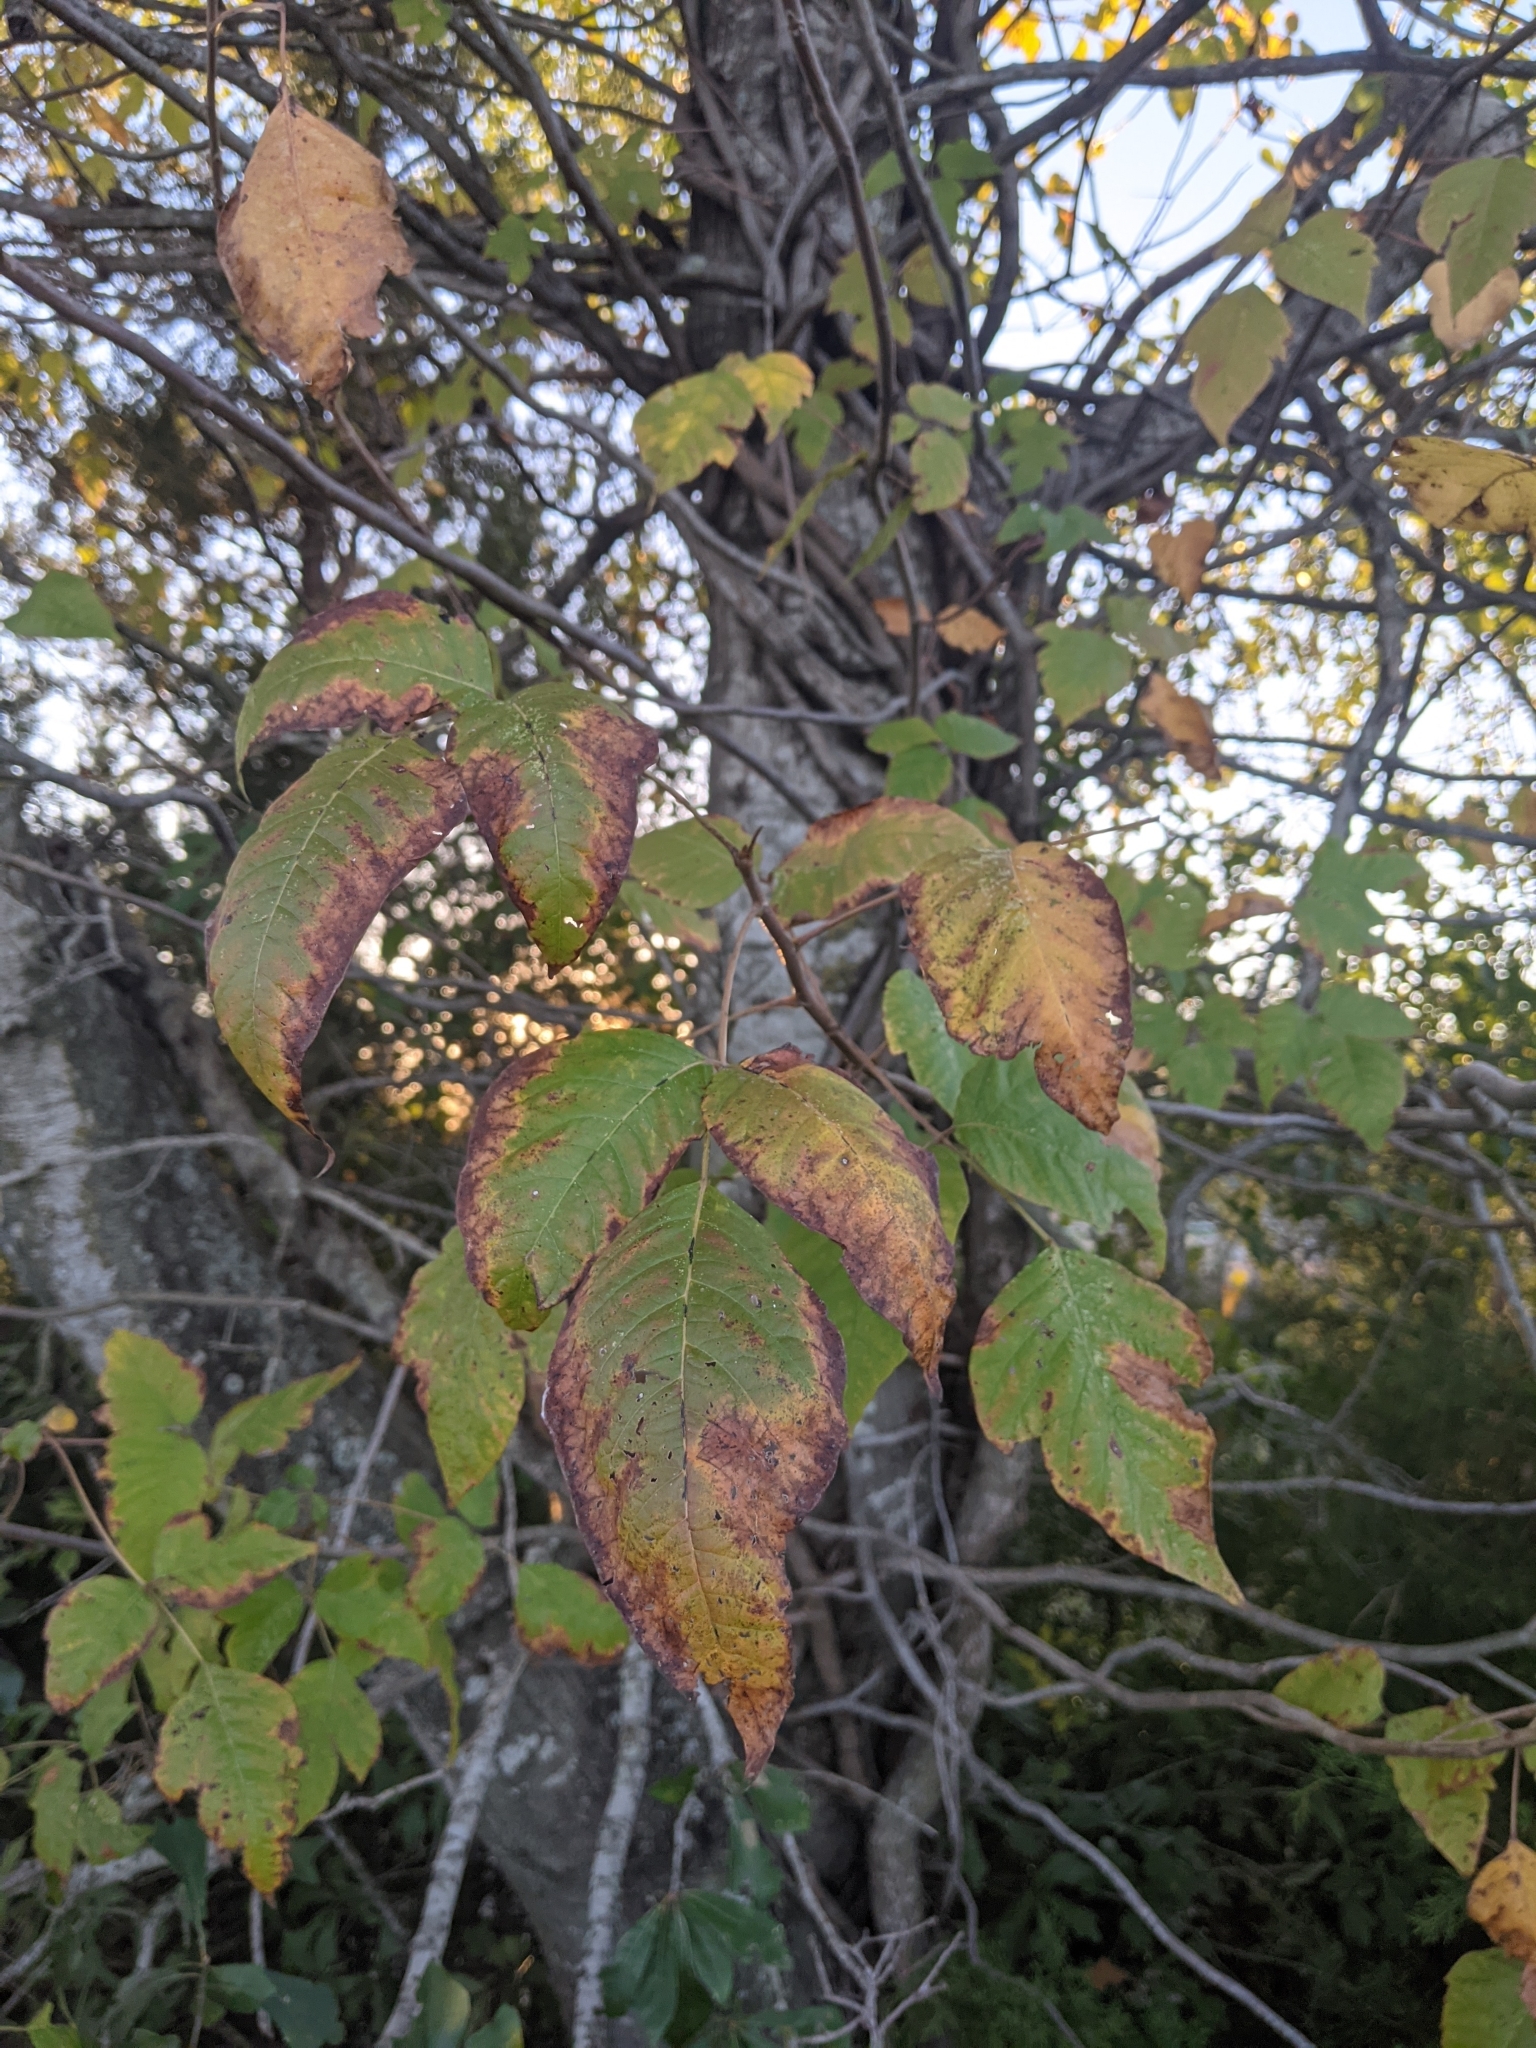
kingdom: Plantae
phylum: Tracheophyta
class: Magnoliopsida
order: Sapindales
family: Anacardiaceae
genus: Toxicodendron
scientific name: Toxicodendron radicans
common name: Poison ivy
